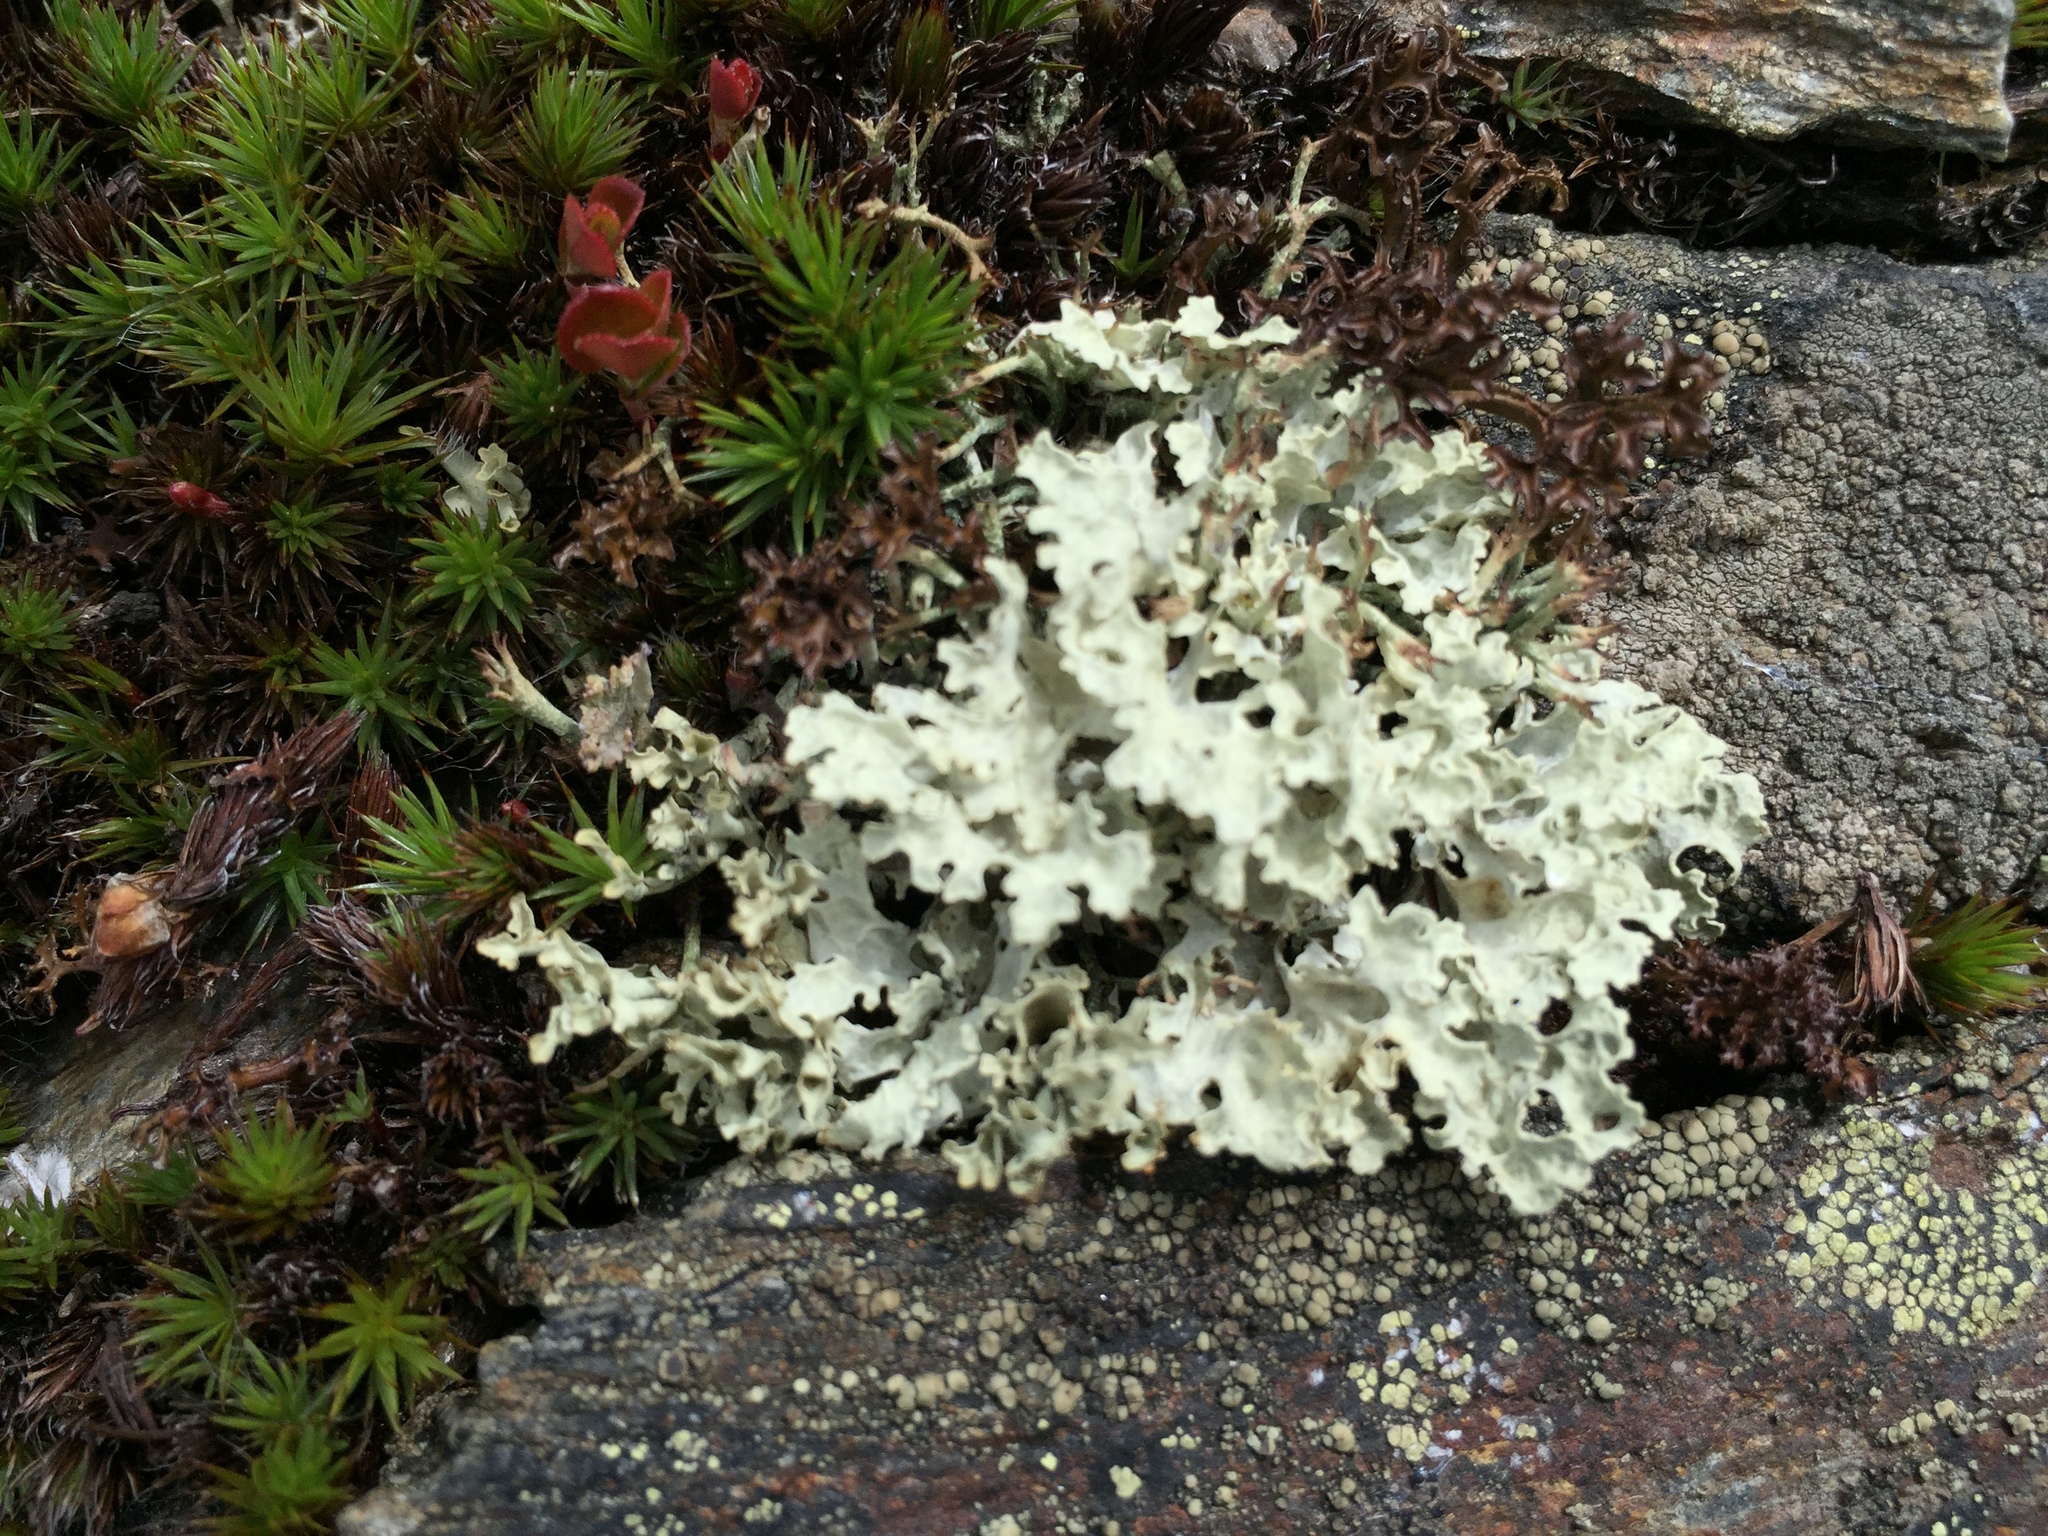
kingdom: Fungi
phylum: Ascomycota
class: Lecanoromycetes
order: Lecanorales
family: Parmeliaceae
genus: Nephromopsis
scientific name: Nephromopsis nivalis
